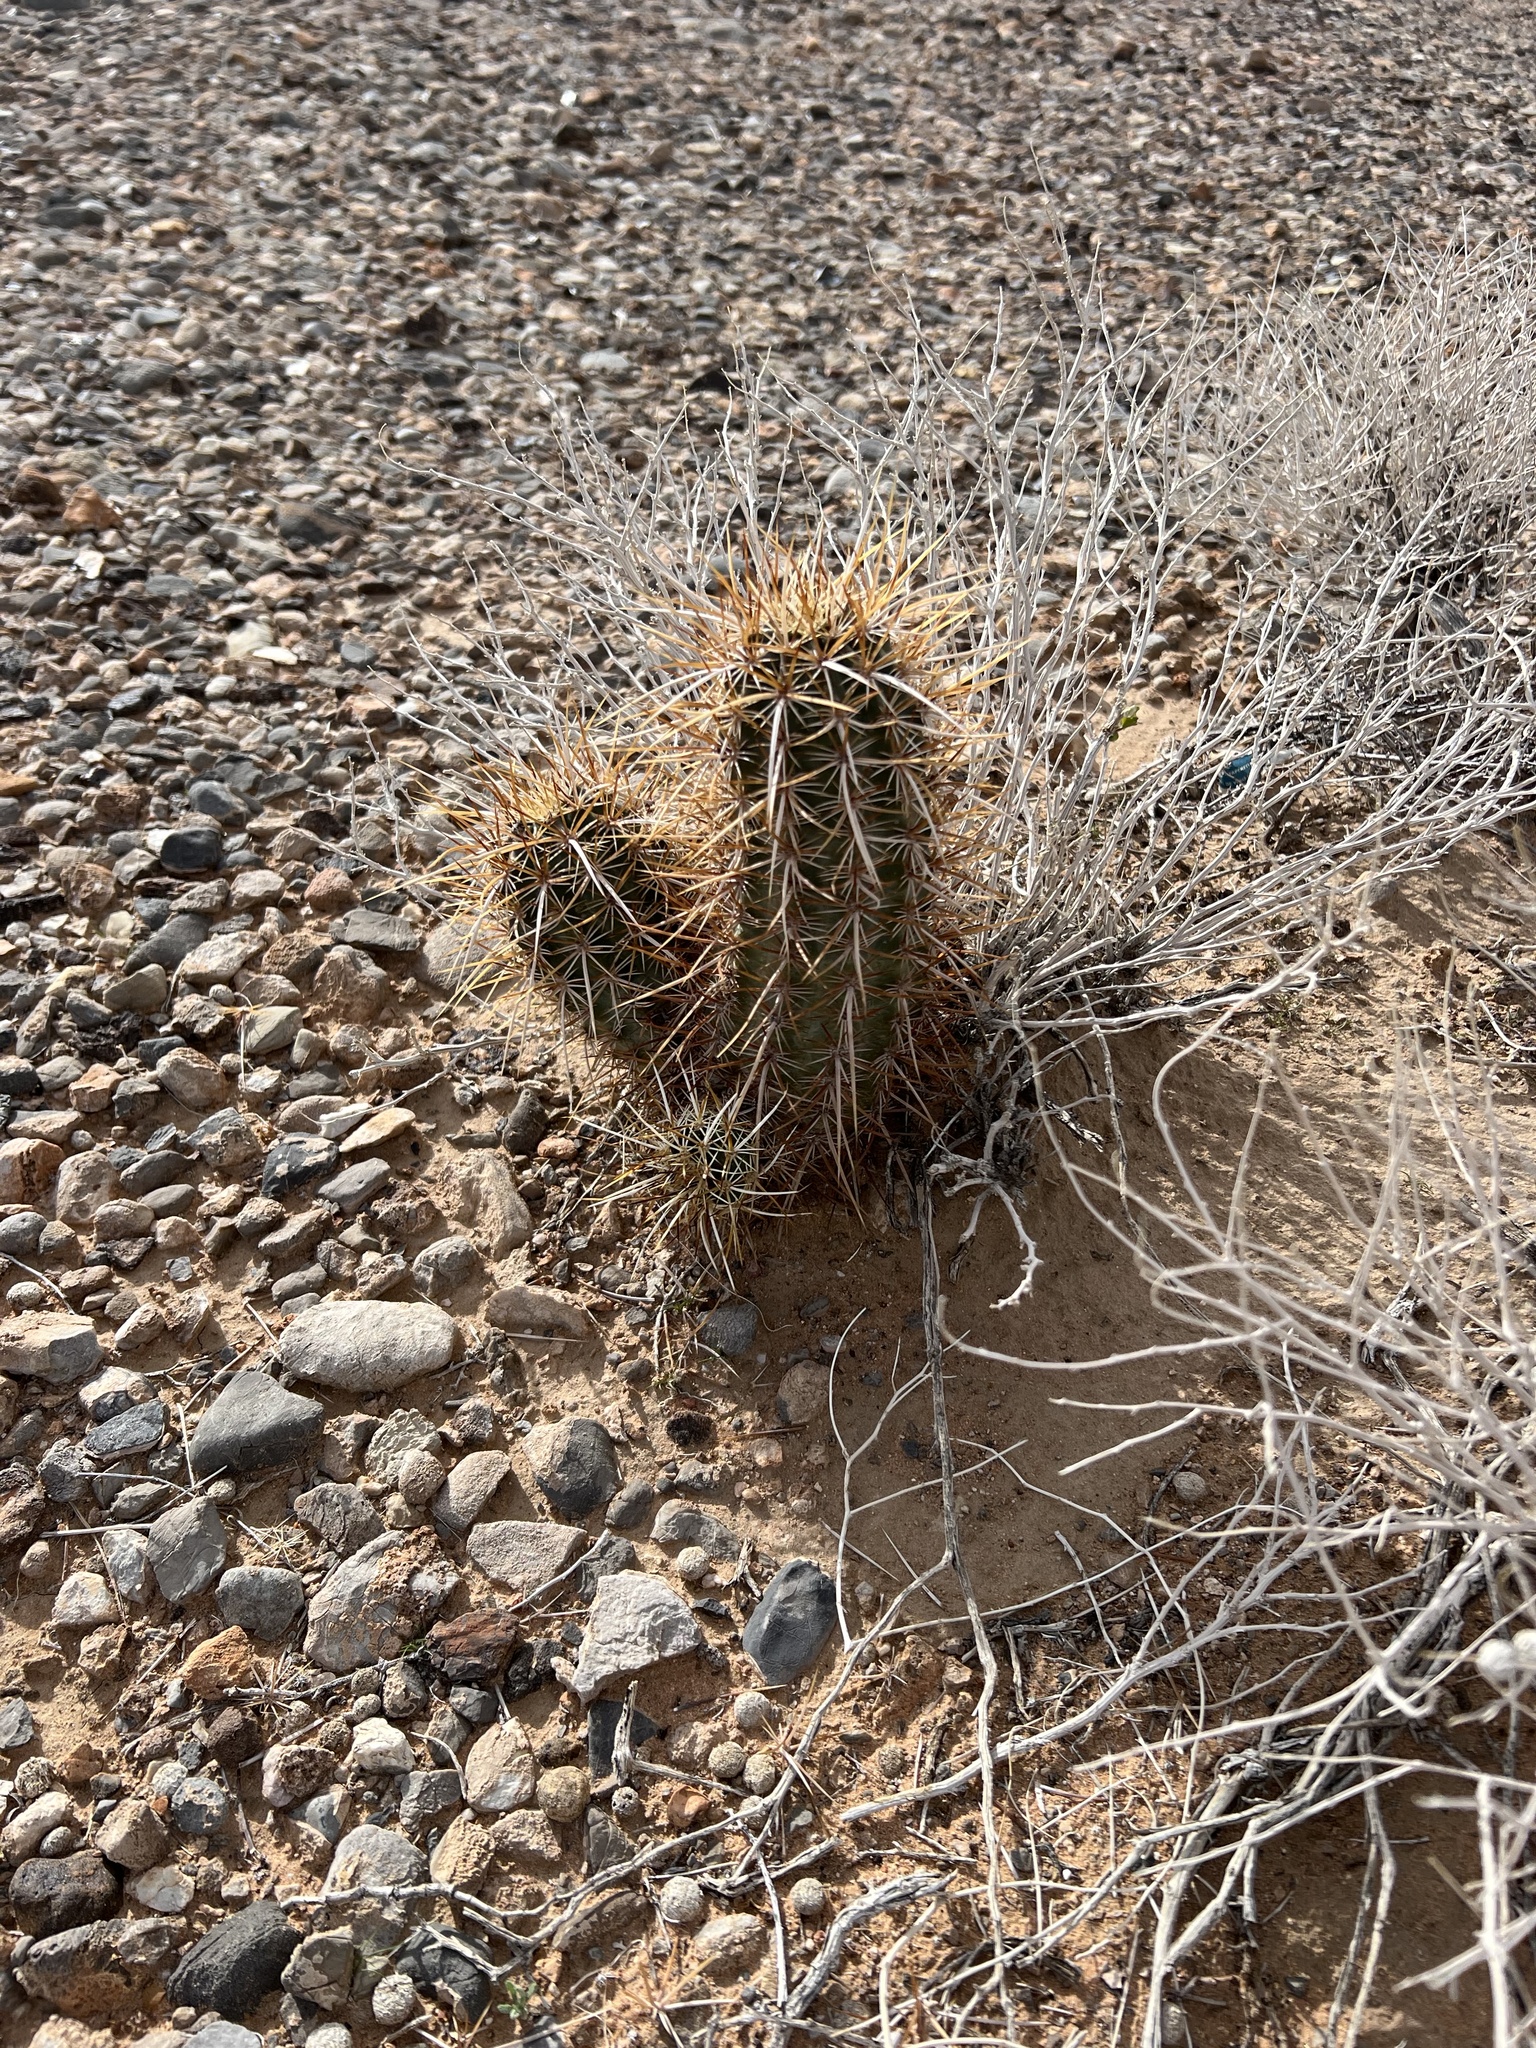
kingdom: Plantae
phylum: Tracheophyta
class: Magnoliopsida
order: Caryophyllales
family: Cactaceae
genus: Echinocereus
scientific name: Echinocereus engelmannii
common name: Engelmann's hedgehog cactus
